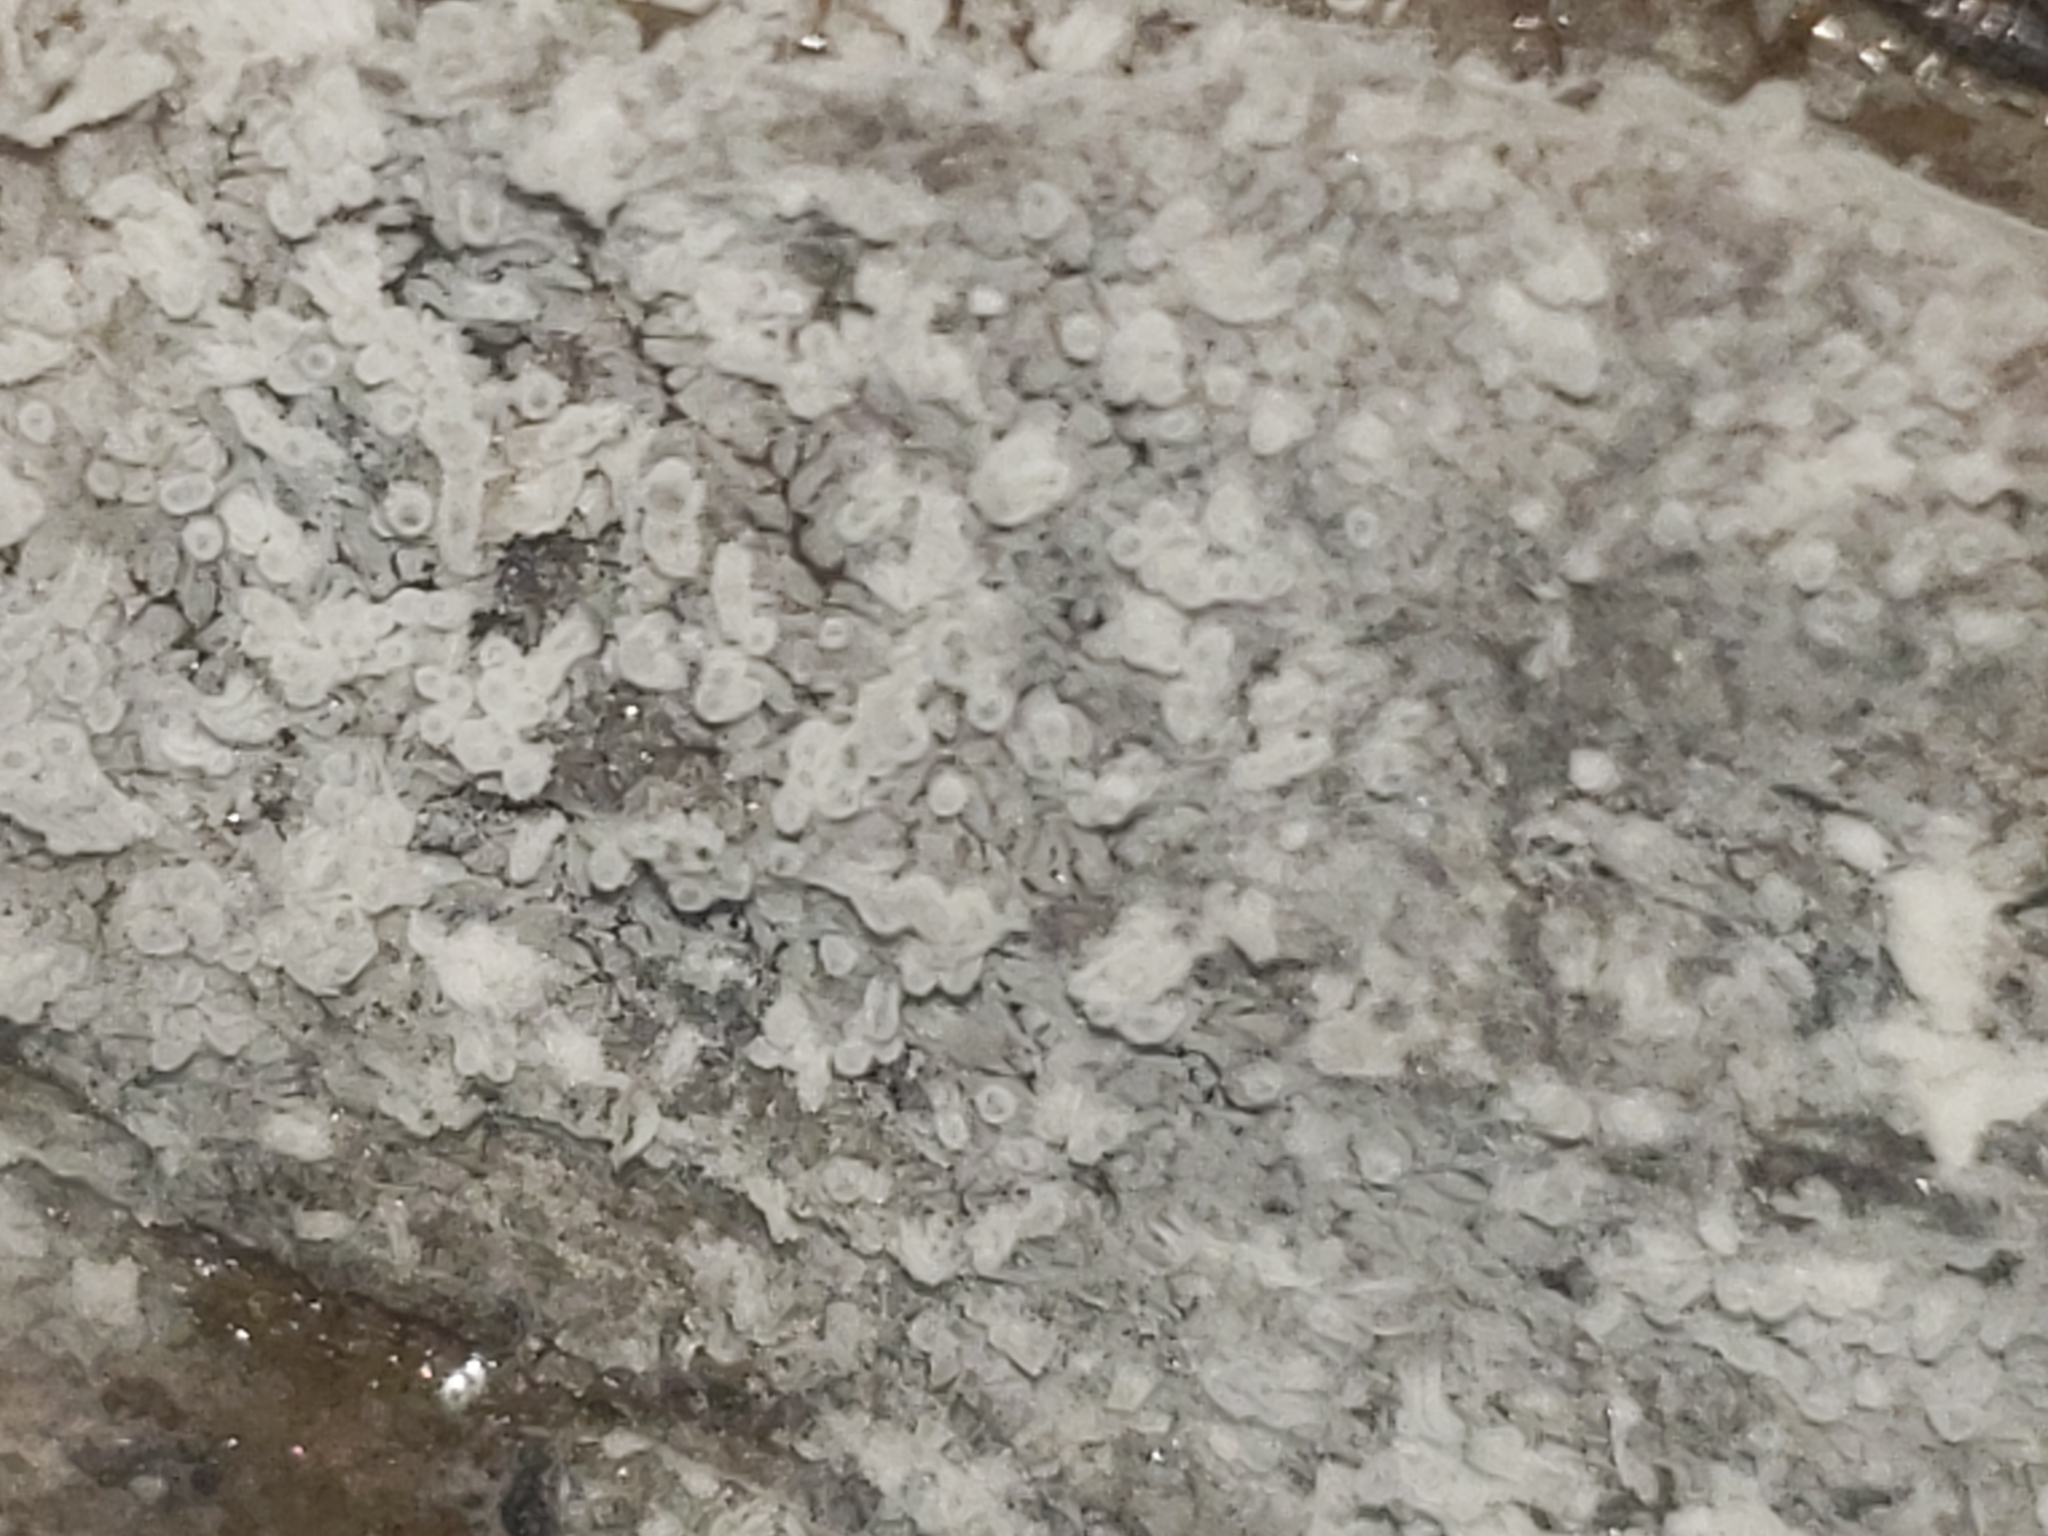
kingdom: Protozoa
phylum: Mycetozoa
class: Protosteliomycetes
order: Ceratiomyxales
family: Ceratiomyxaceae
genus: Ceratiomyxa
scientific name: Ceratiomyxa fruticulosa
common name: Honeycomb coral slime mold
